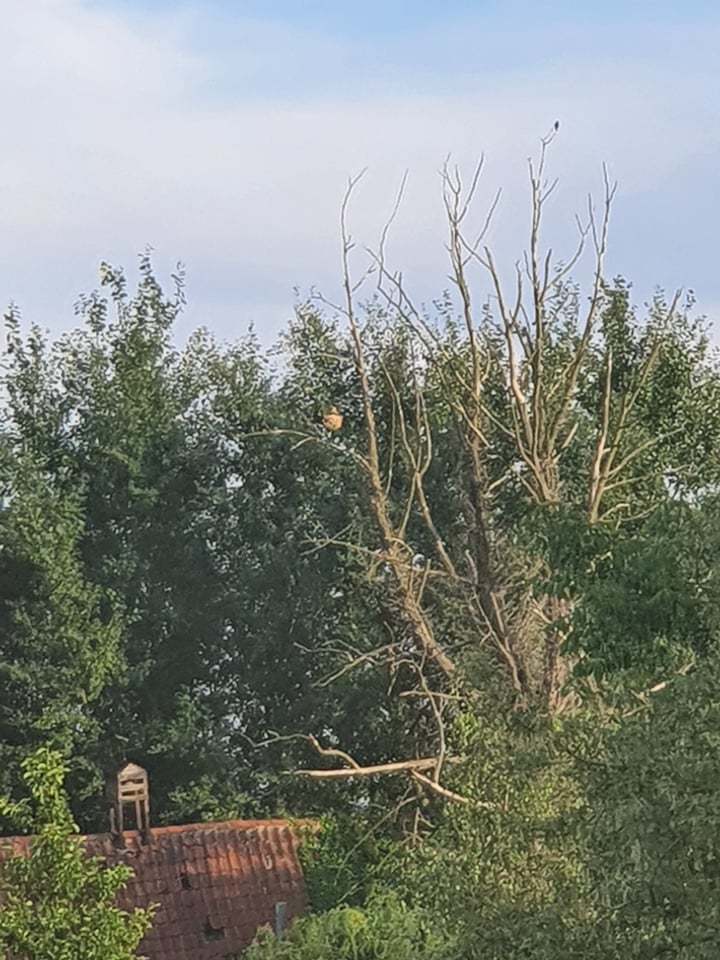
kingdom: Animalia
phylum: Arthropoda
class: Insecta
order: Hymenoptera
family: Vespidae
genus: Vespa
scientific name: Vespa velutina
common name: Asian hornet
